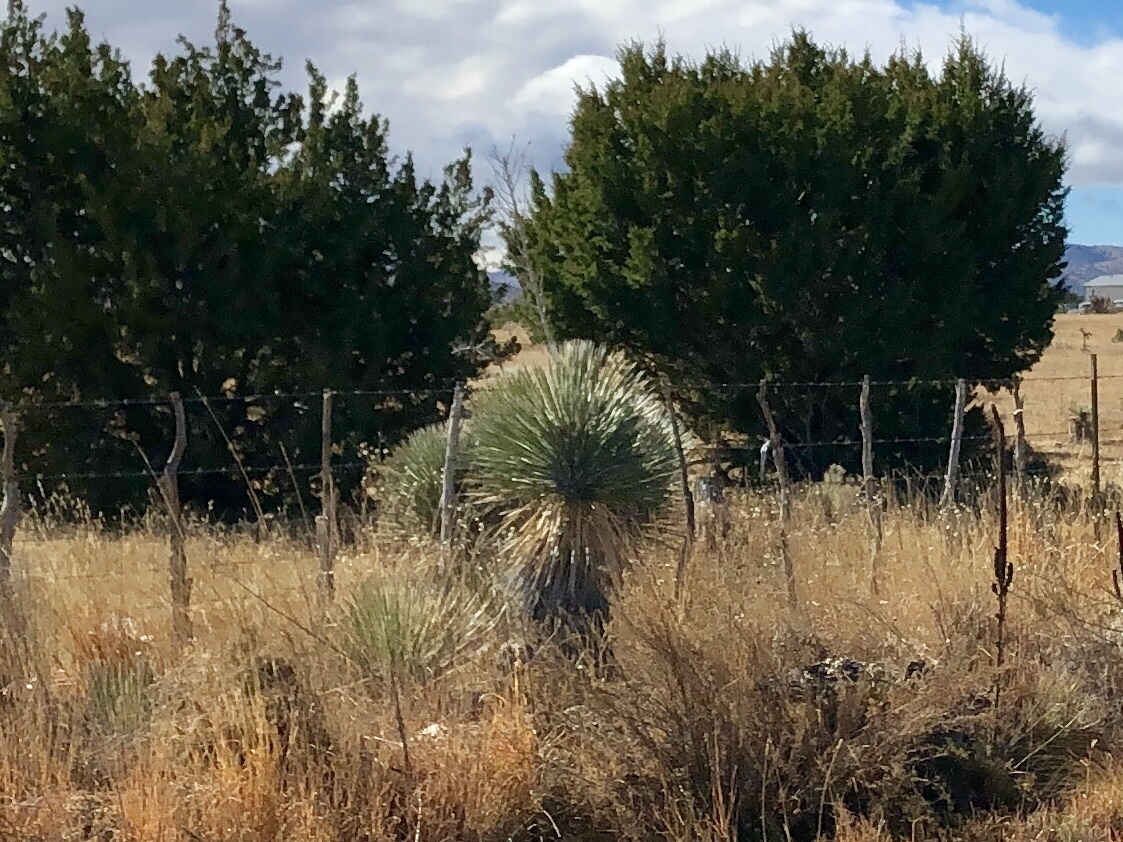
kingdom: Plantae
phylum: Tracheophyta
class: Liliopsida
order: Asparagales
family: Asparagaceae
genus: Yucca
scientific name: Yucca elata
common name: Palmella
